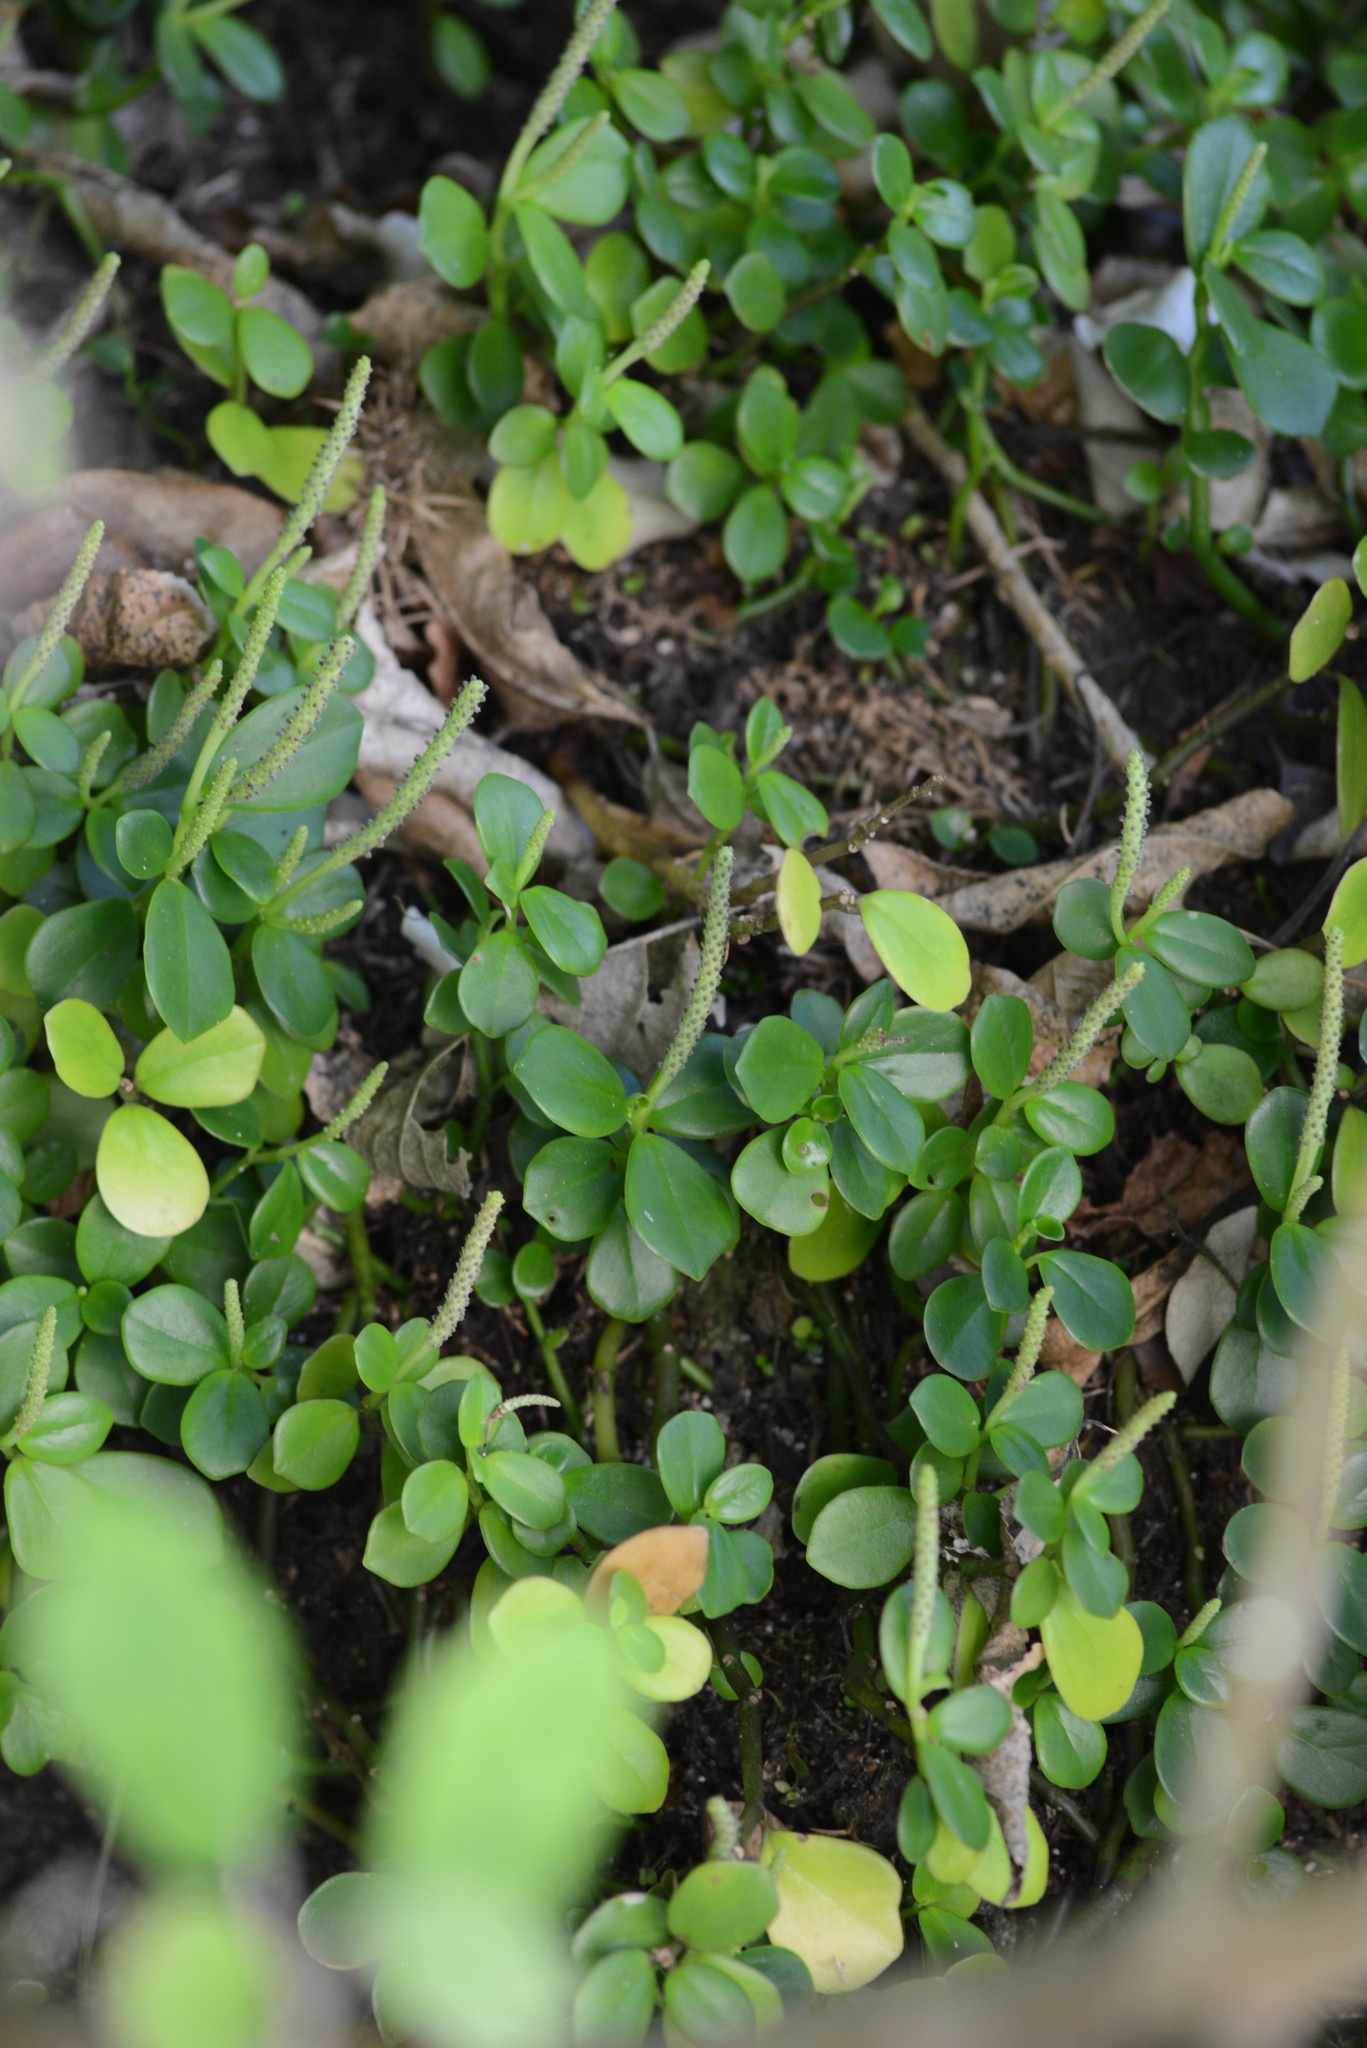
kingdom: Plantae
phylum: Tracheophyta
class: Magnoliopsida
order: Piperales
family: Piperaceae
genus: Peperomia
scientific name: Peperomia urvilleana
